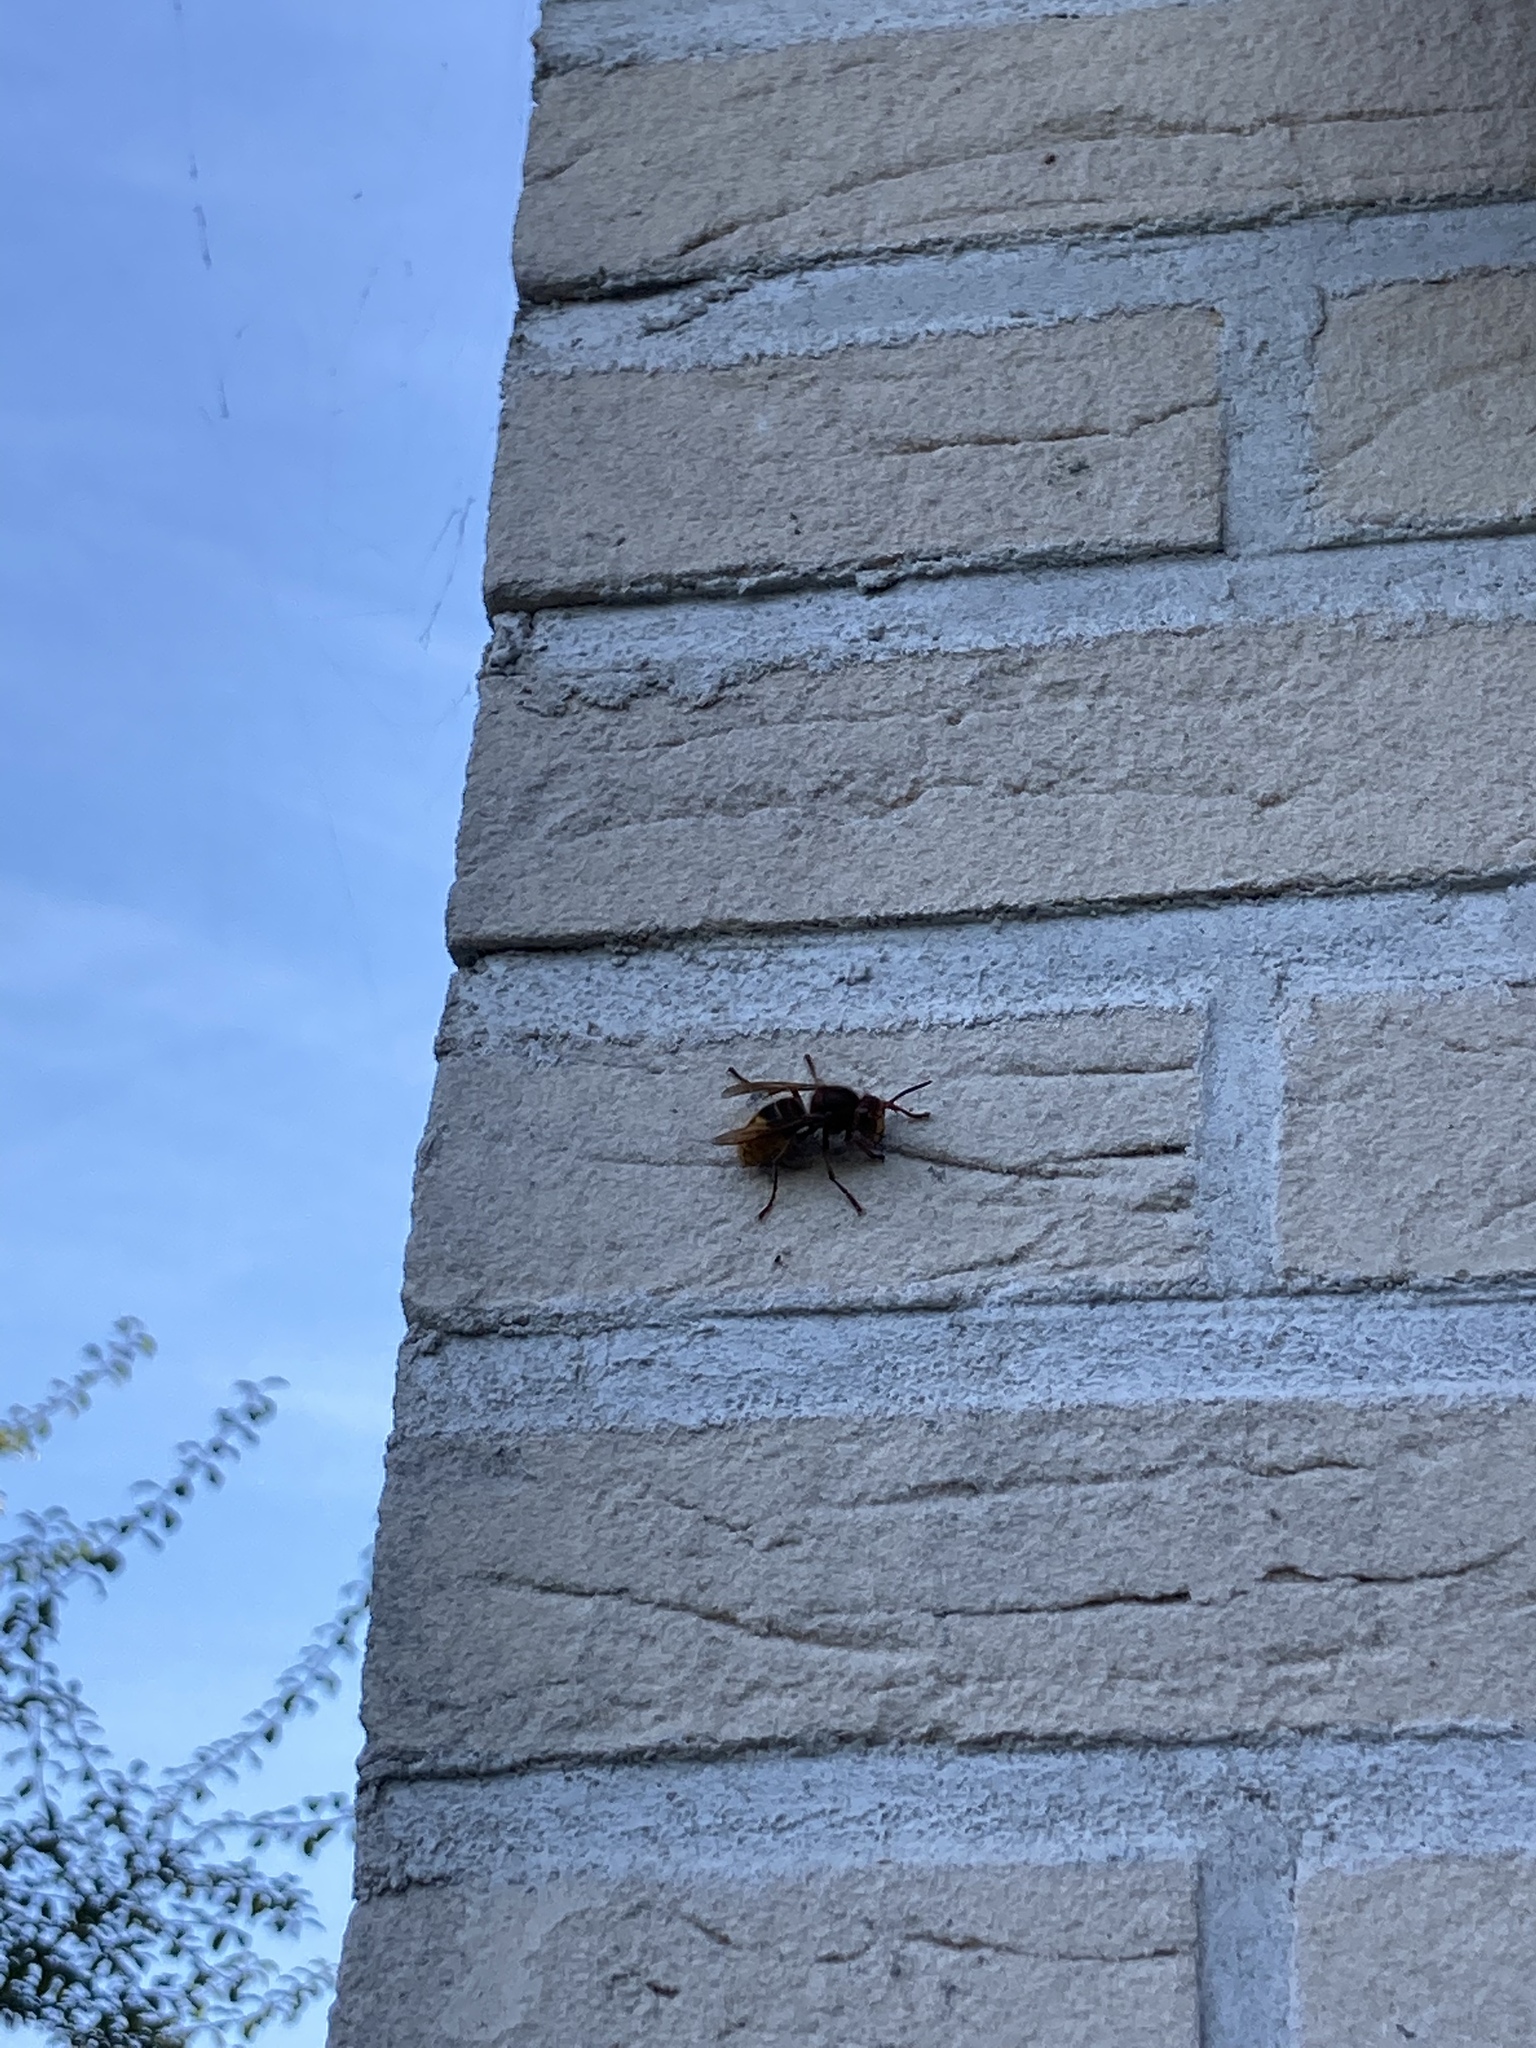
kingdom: Animalia
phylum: Arthropoda
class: Insecta
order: Hymenoptera
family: Vespidae
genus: Vespa
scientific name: Vespa crabro
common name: Hornet
